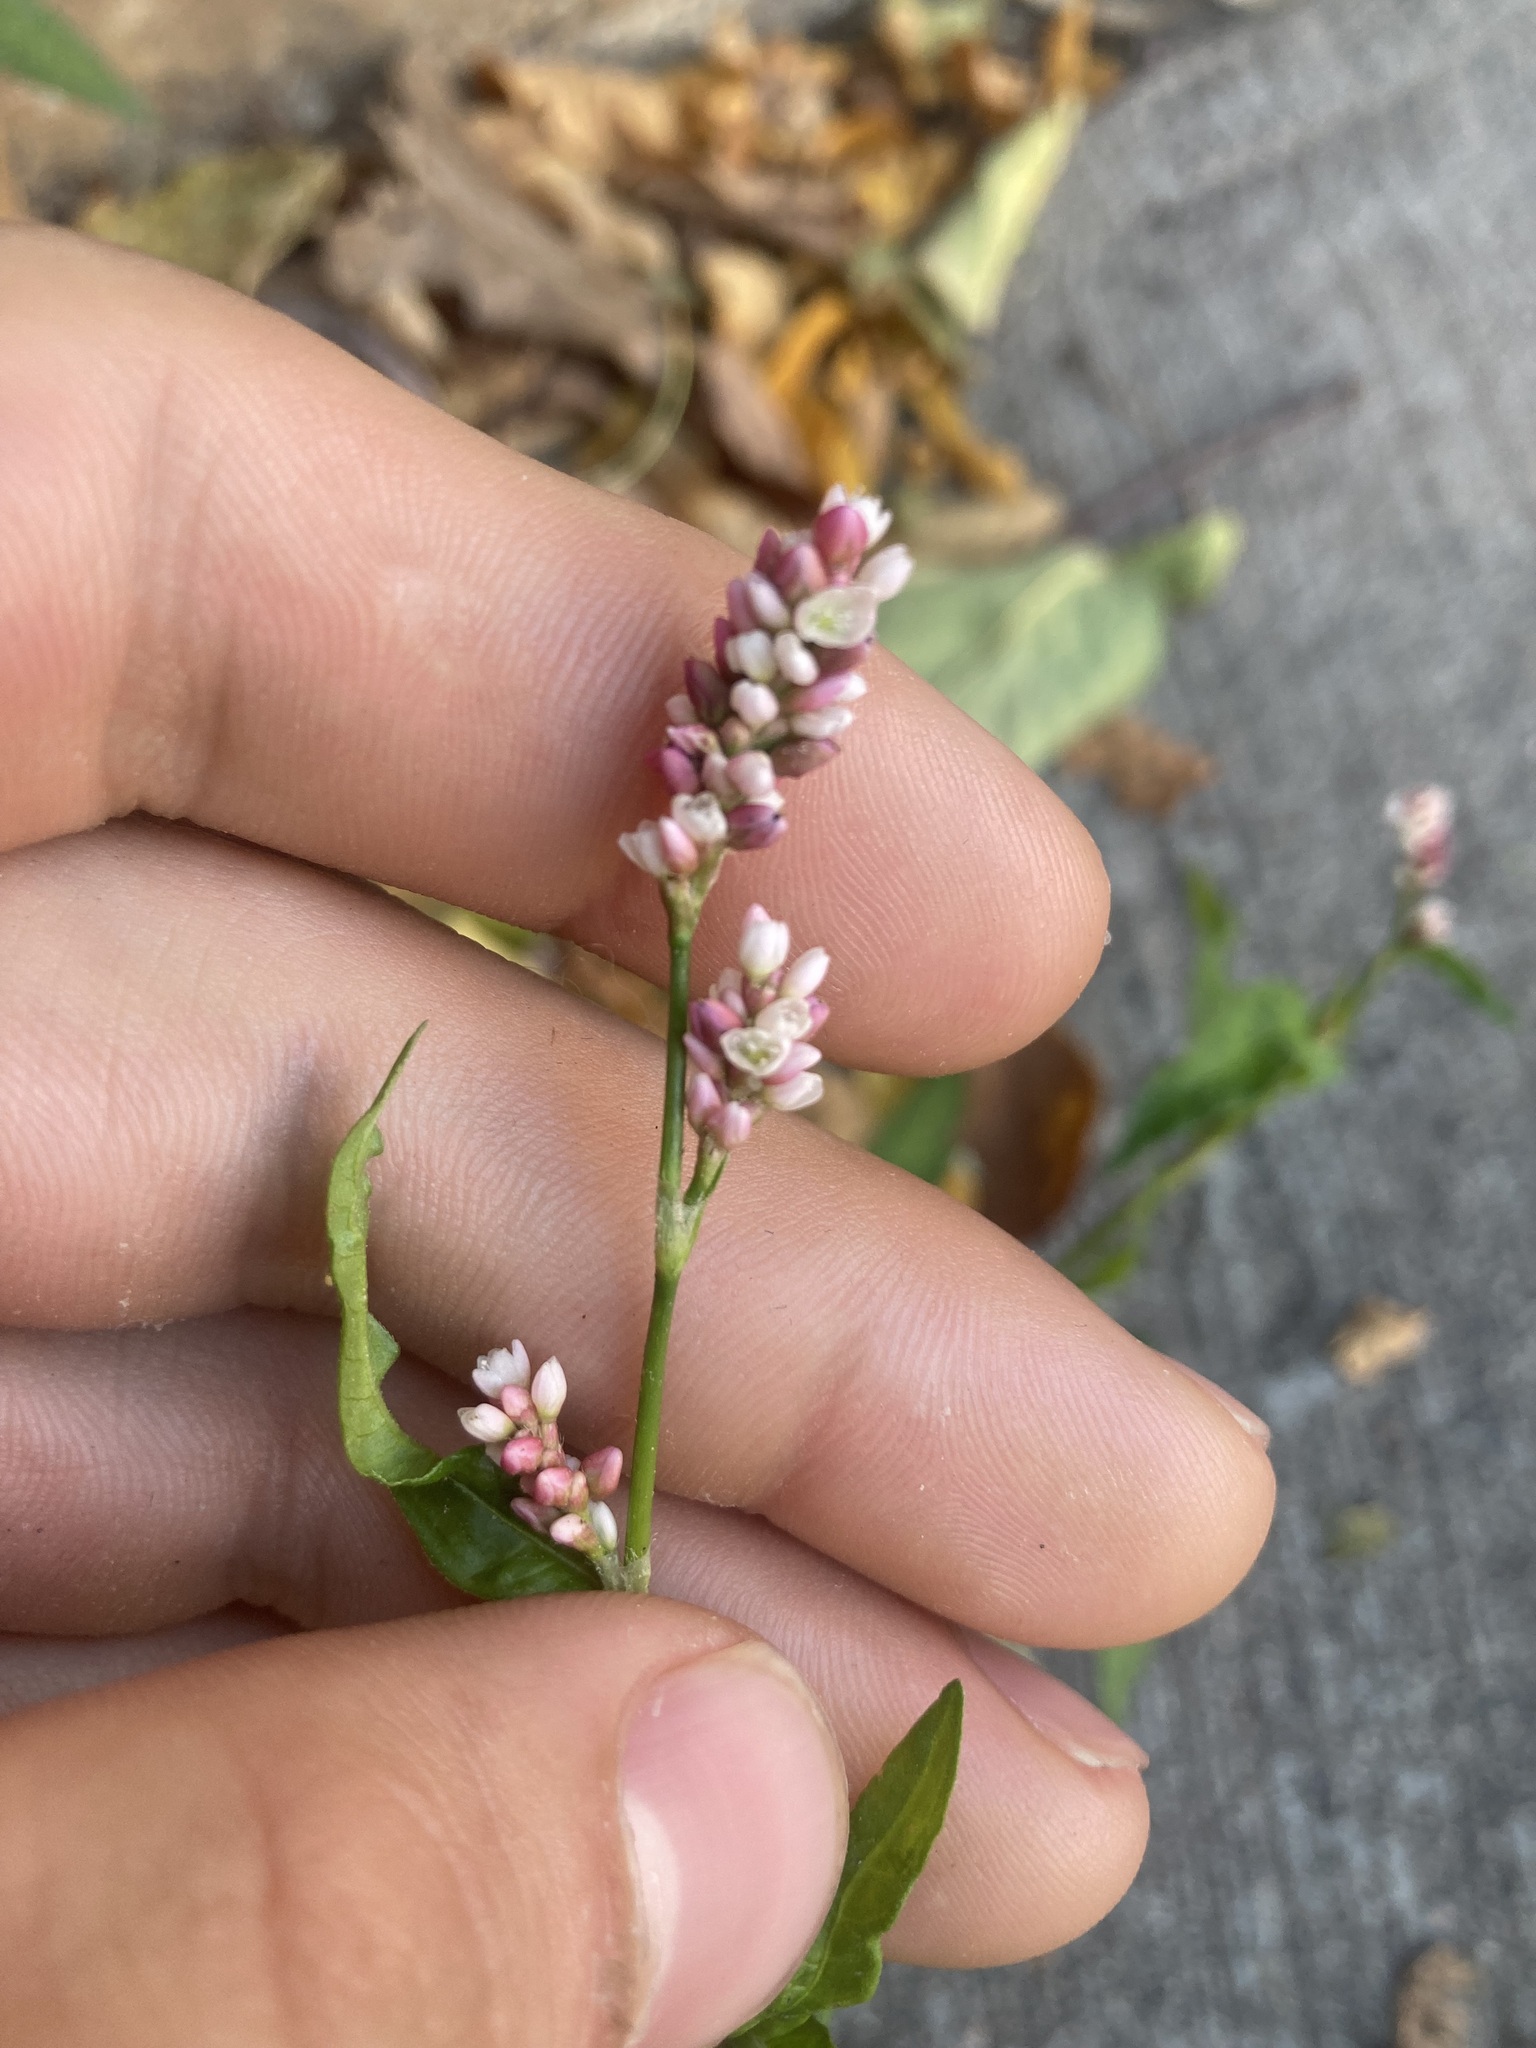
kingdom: Plantae
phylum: Tracheophyta
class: Magnoliopsida
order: Caryophyllales
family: Polygonaceae
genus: Persicaria
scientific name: Persicaria maculosa
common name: Redshank
